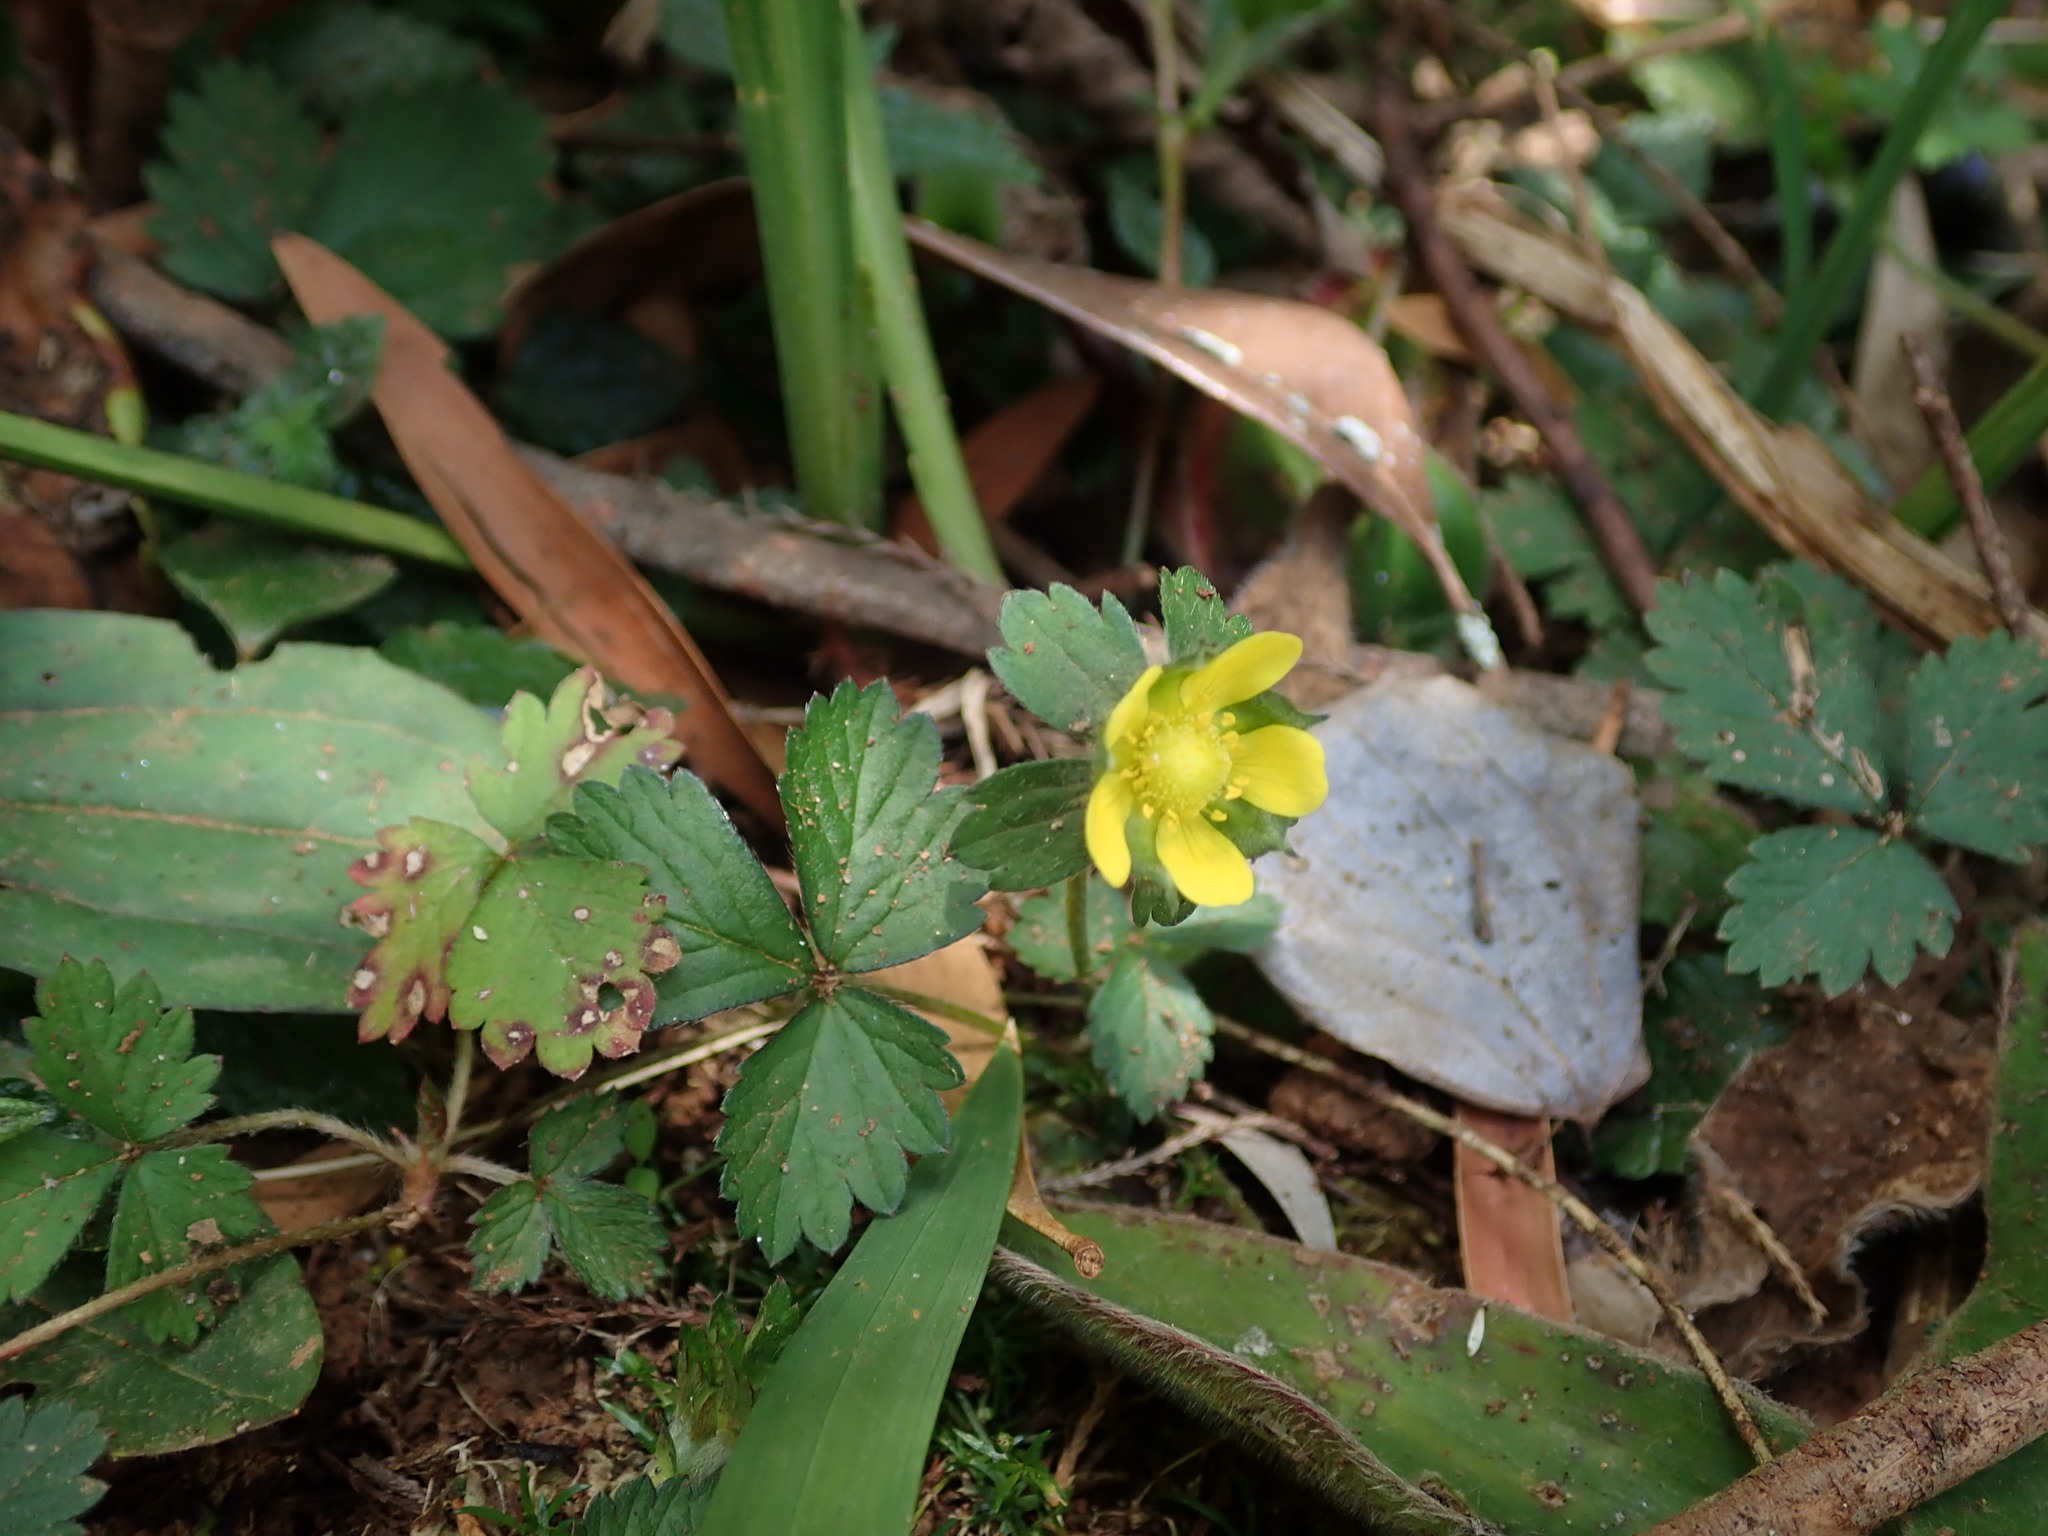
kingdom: Plantae
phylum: Tracheophyta
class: Magnoliopsida
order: Rosales
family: Rosaceae
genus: Potentilla
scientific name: Potentilla indica
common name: Yellow-flowered strawberry
